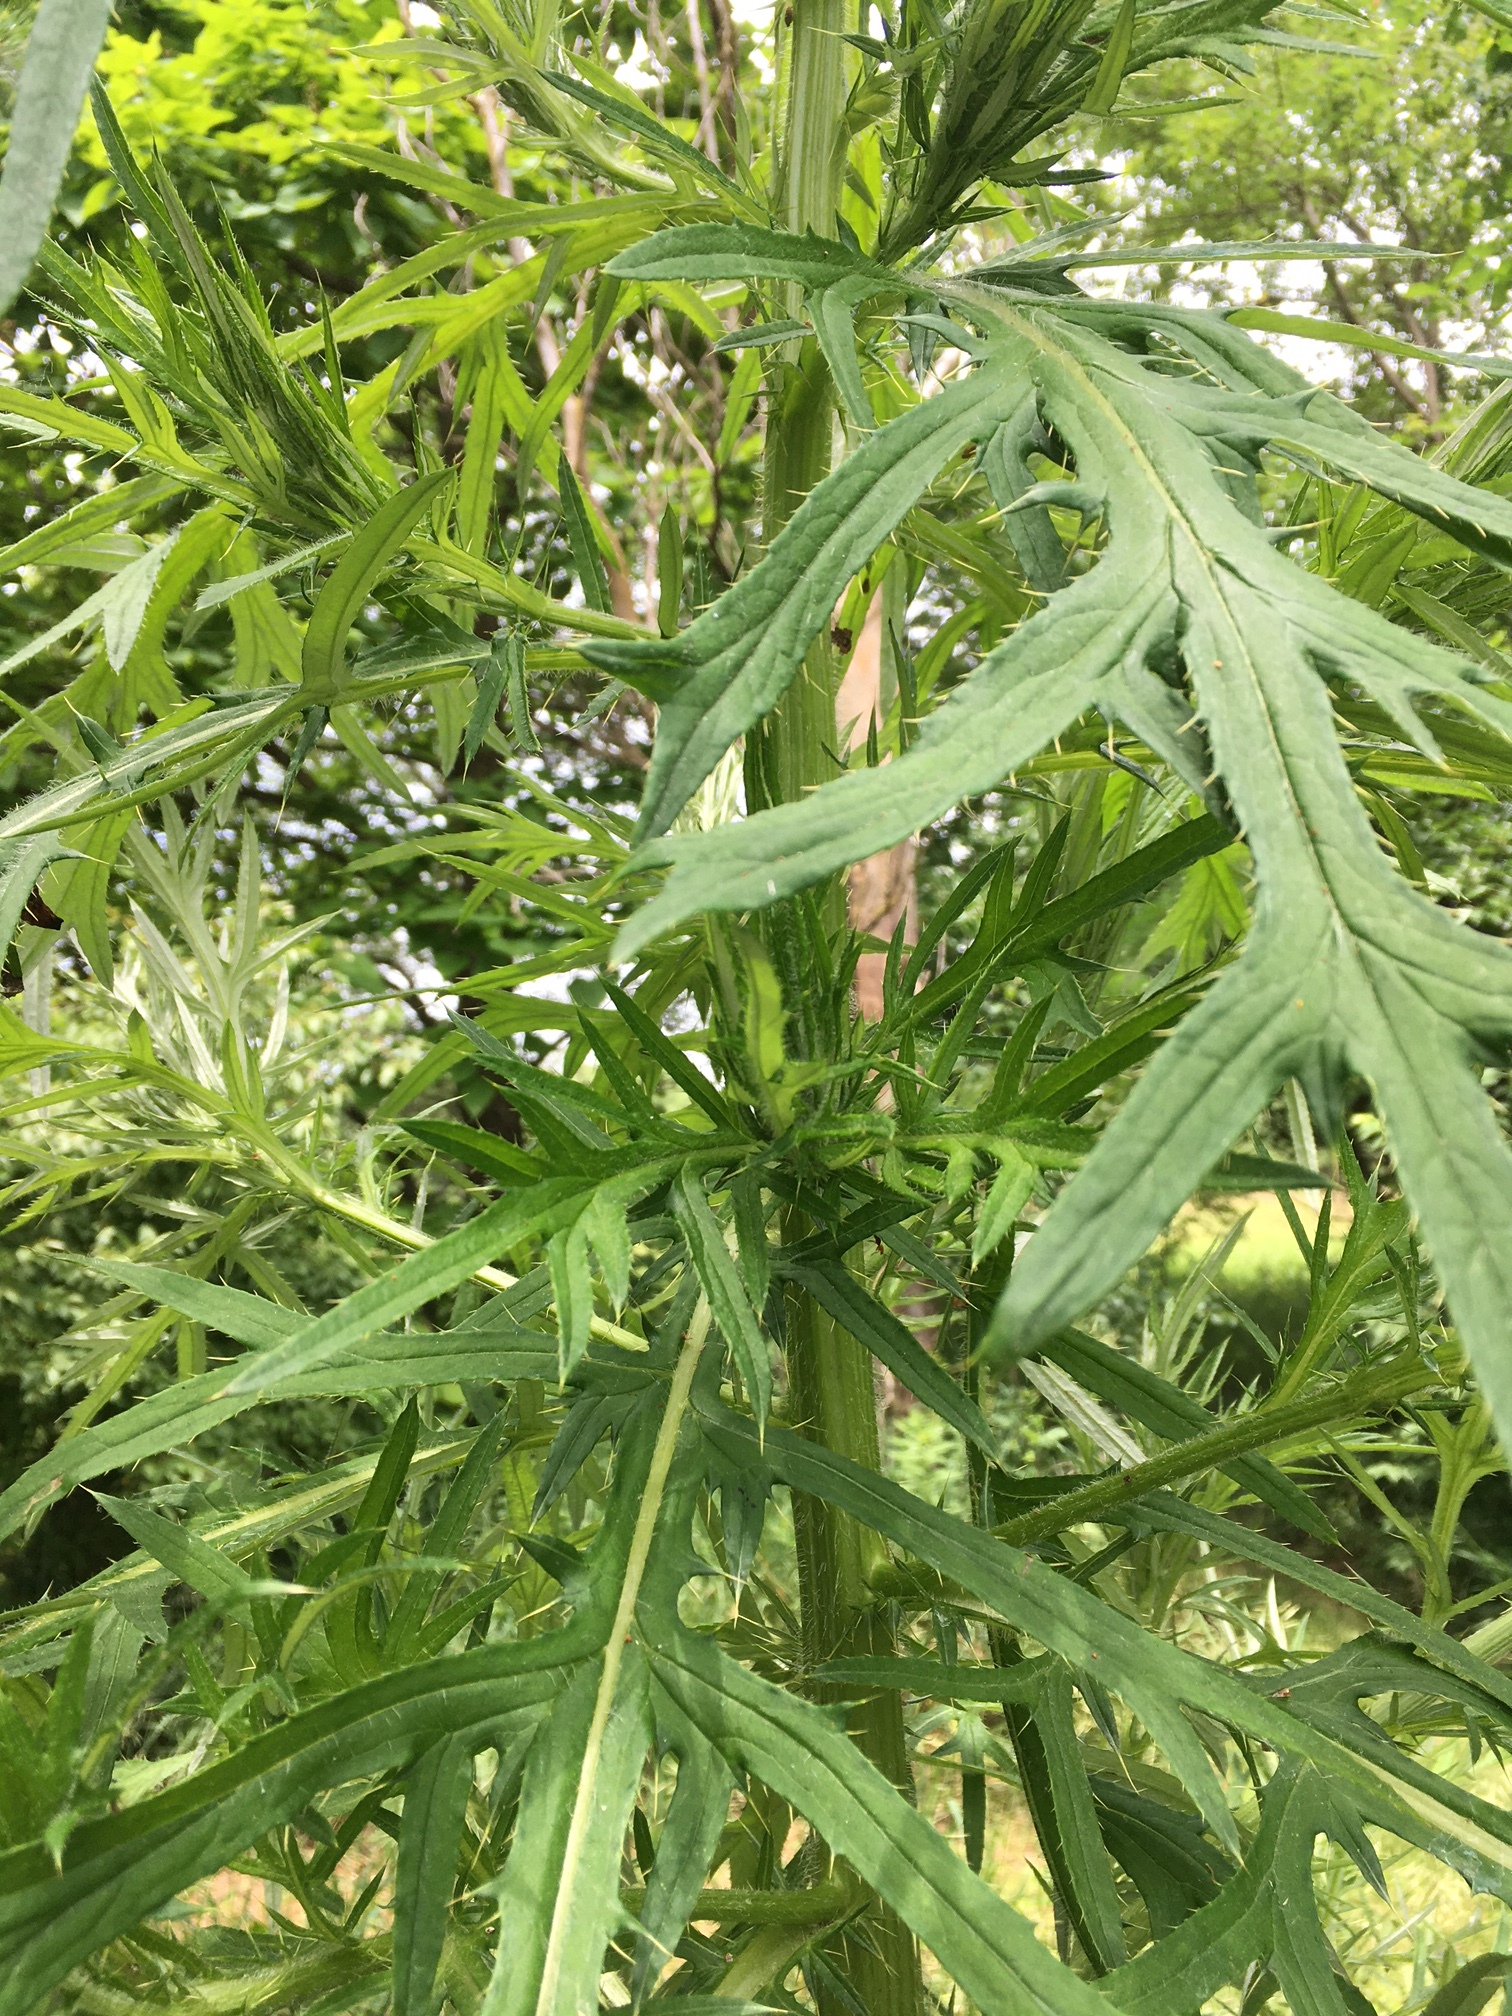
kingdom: Plantae
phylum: Tracheophyta
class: Magnoliopsida
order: Asterales
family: Asteraceae
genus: Cirsium
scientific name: Cirsium discolor
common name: Field thistle
